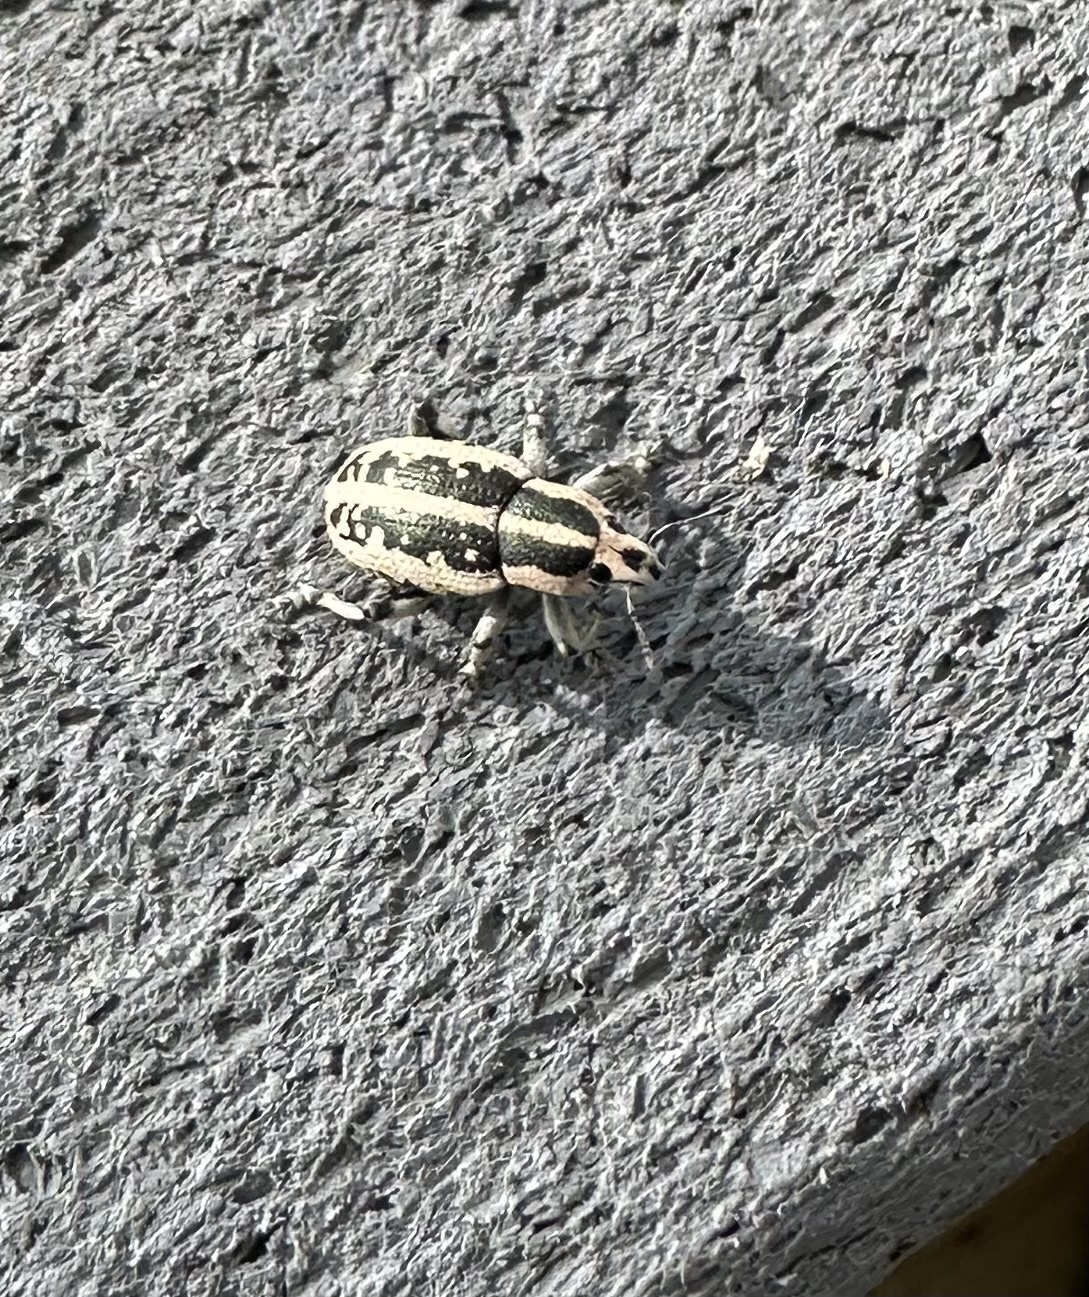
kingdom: Animalia
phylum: Arthropoda
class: Insecta
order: Coleoptera
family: Curculionidae
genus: Eudiagogus
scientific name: Eudiagogus rosenschoeldi
